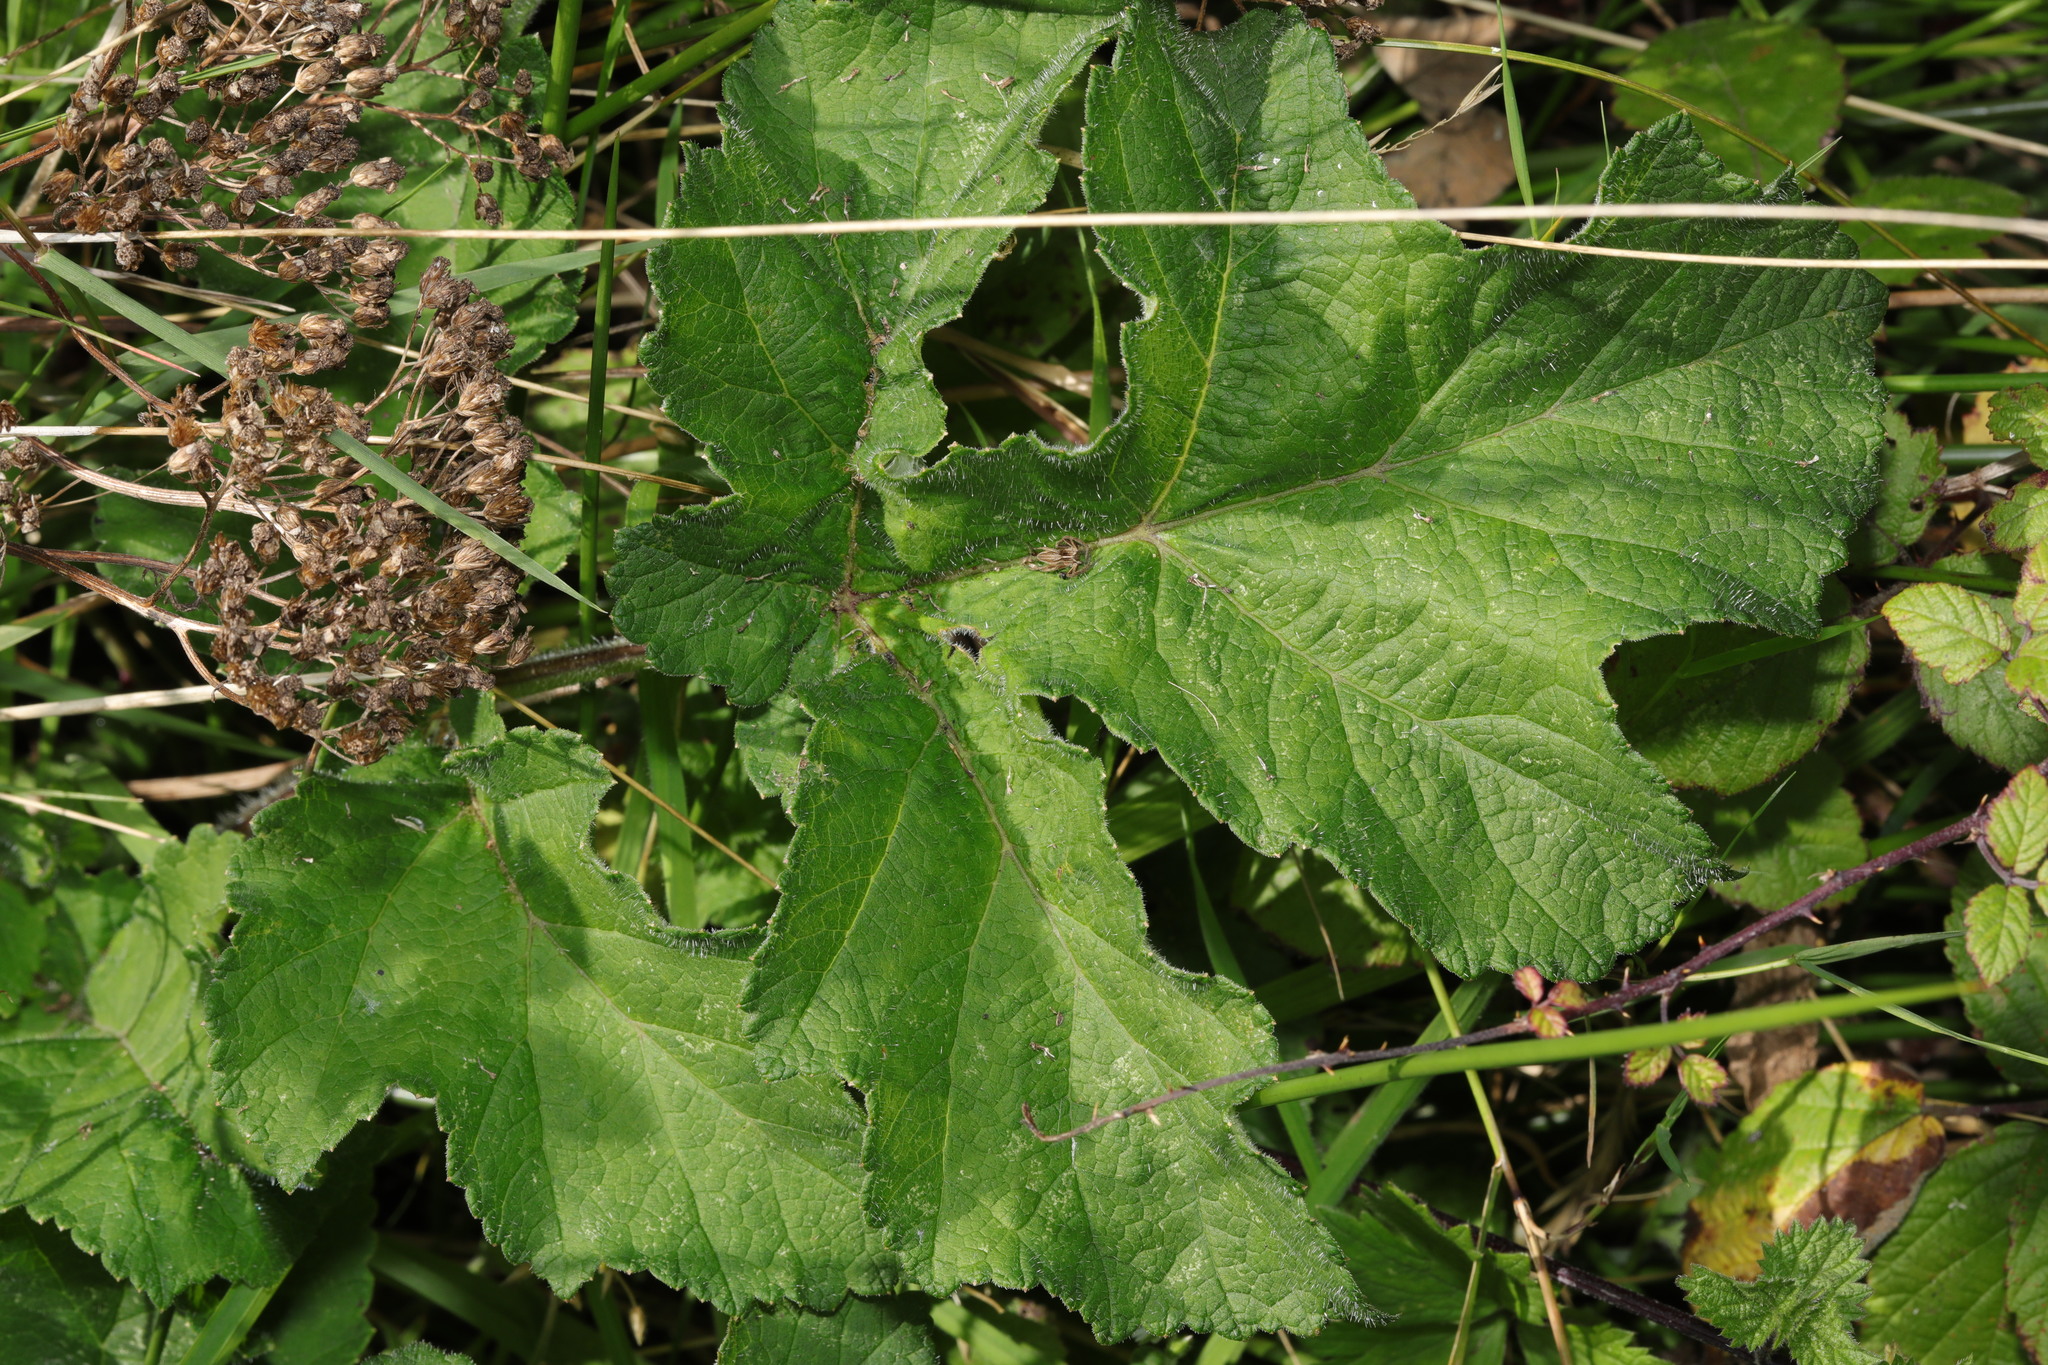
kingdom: Plantae
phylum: Tracheophyta
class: Magnoliopsida
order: Apiales
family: Apiaceae
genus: Heracleum
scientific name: Heracleum sphondylium
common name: Hogweed
